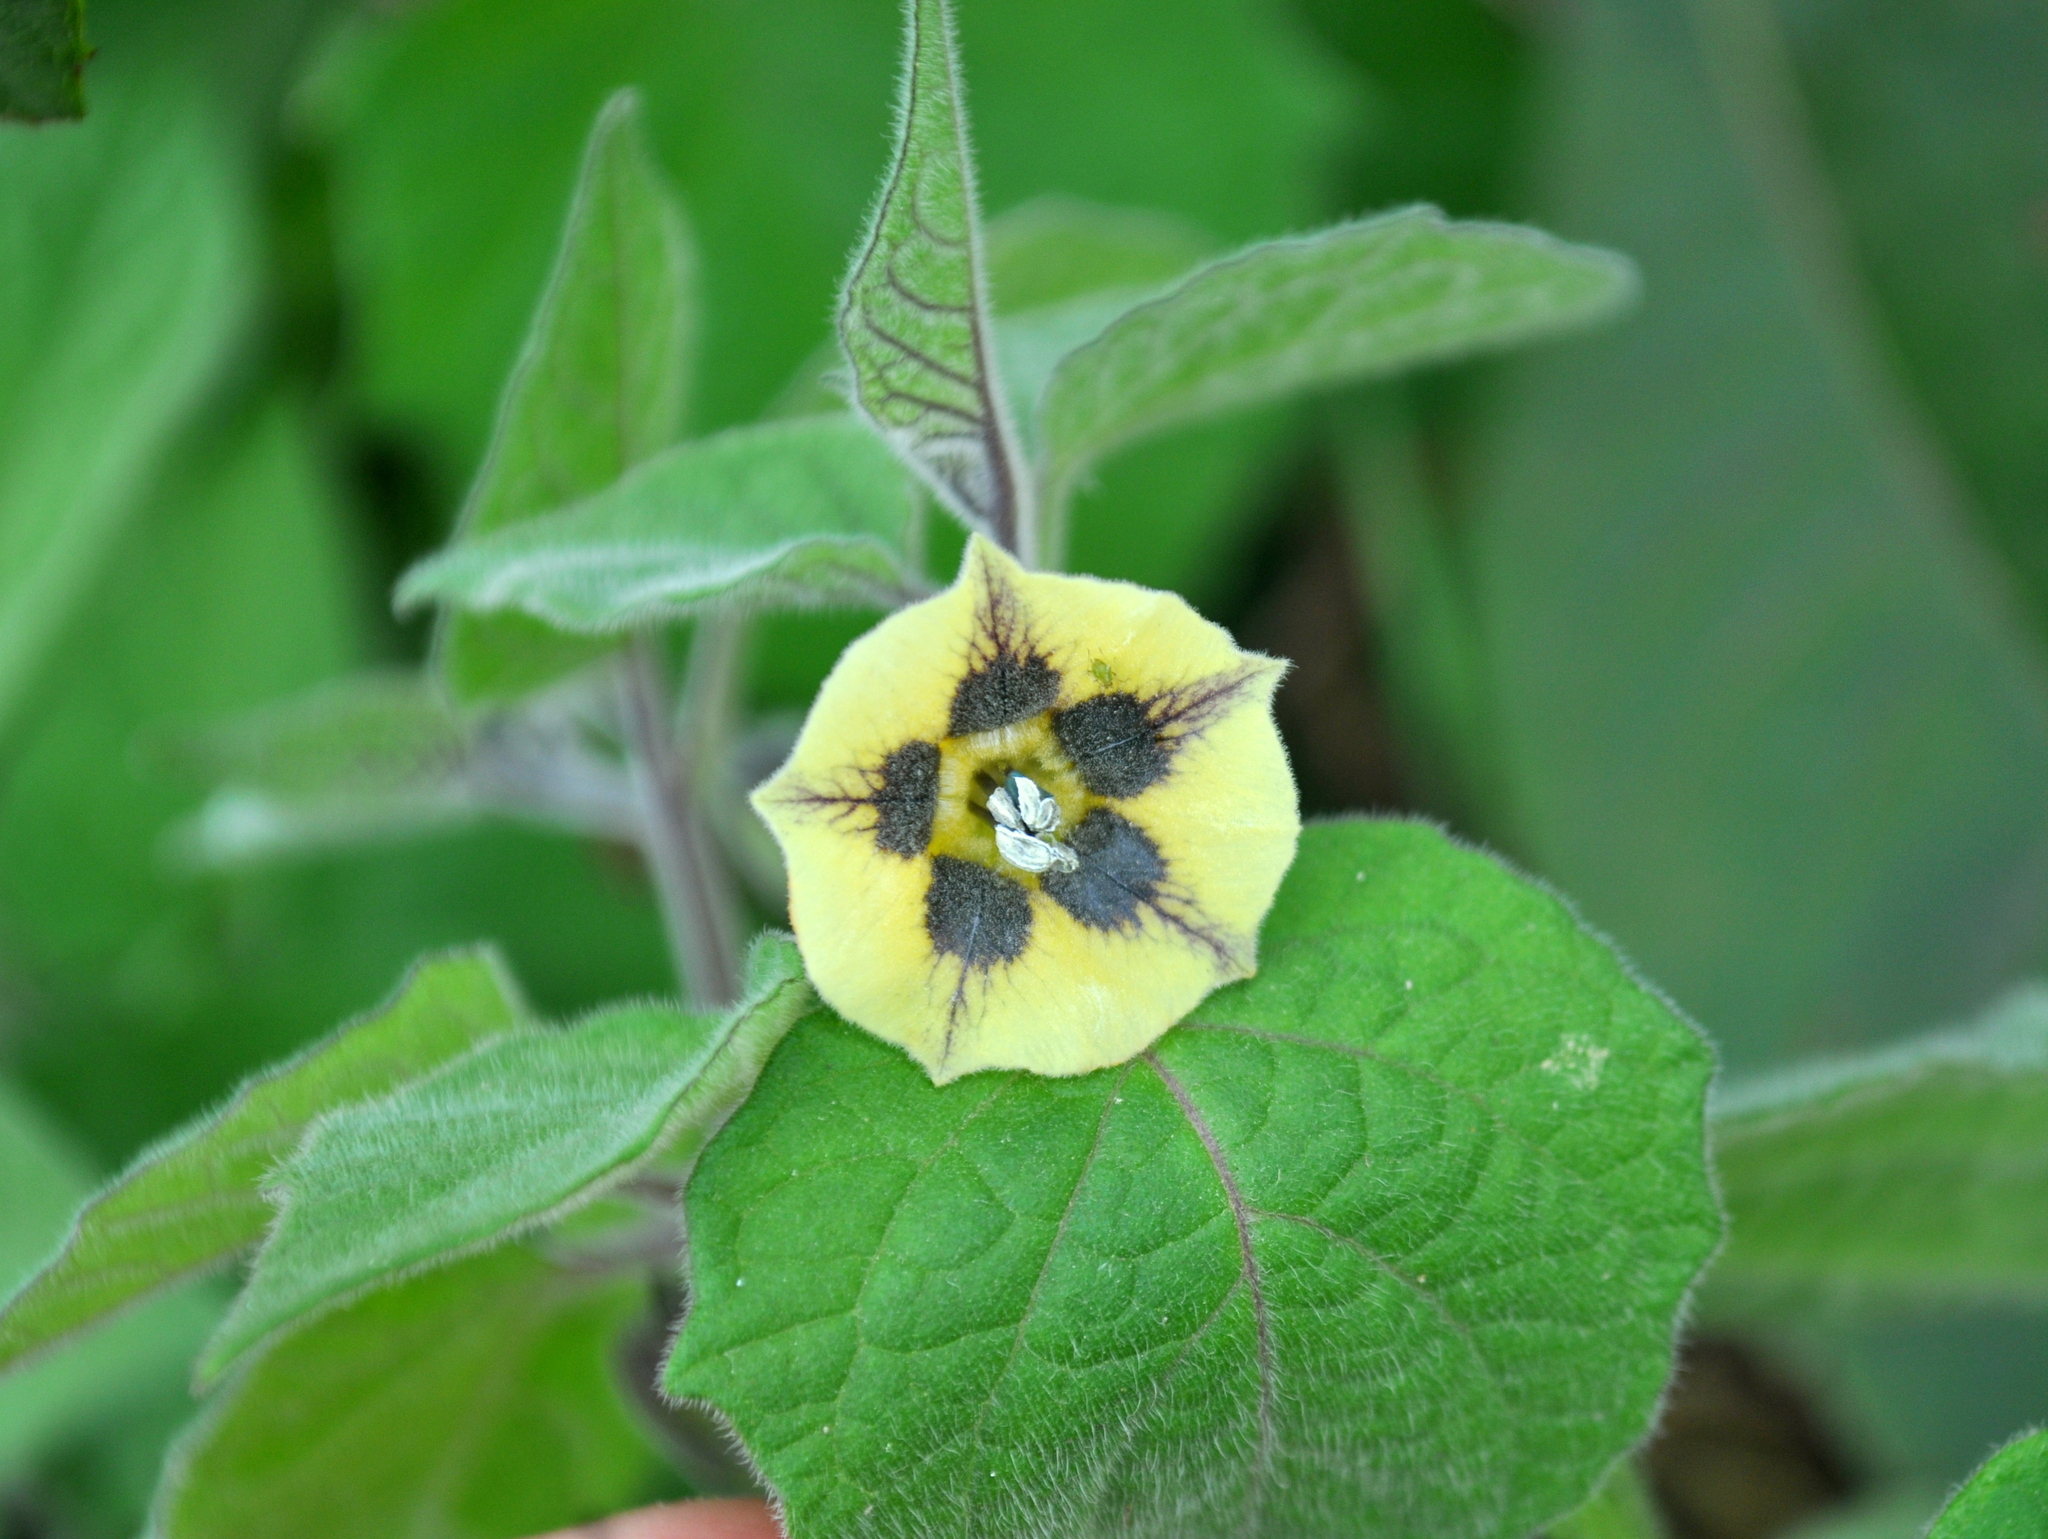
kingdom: Plantae
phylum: Tracheophyta
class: Magnoliopsida
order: Solanales
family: Solanaceae
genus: Physalis
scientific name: Physalis peruviana
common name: Cape-gooseberry
